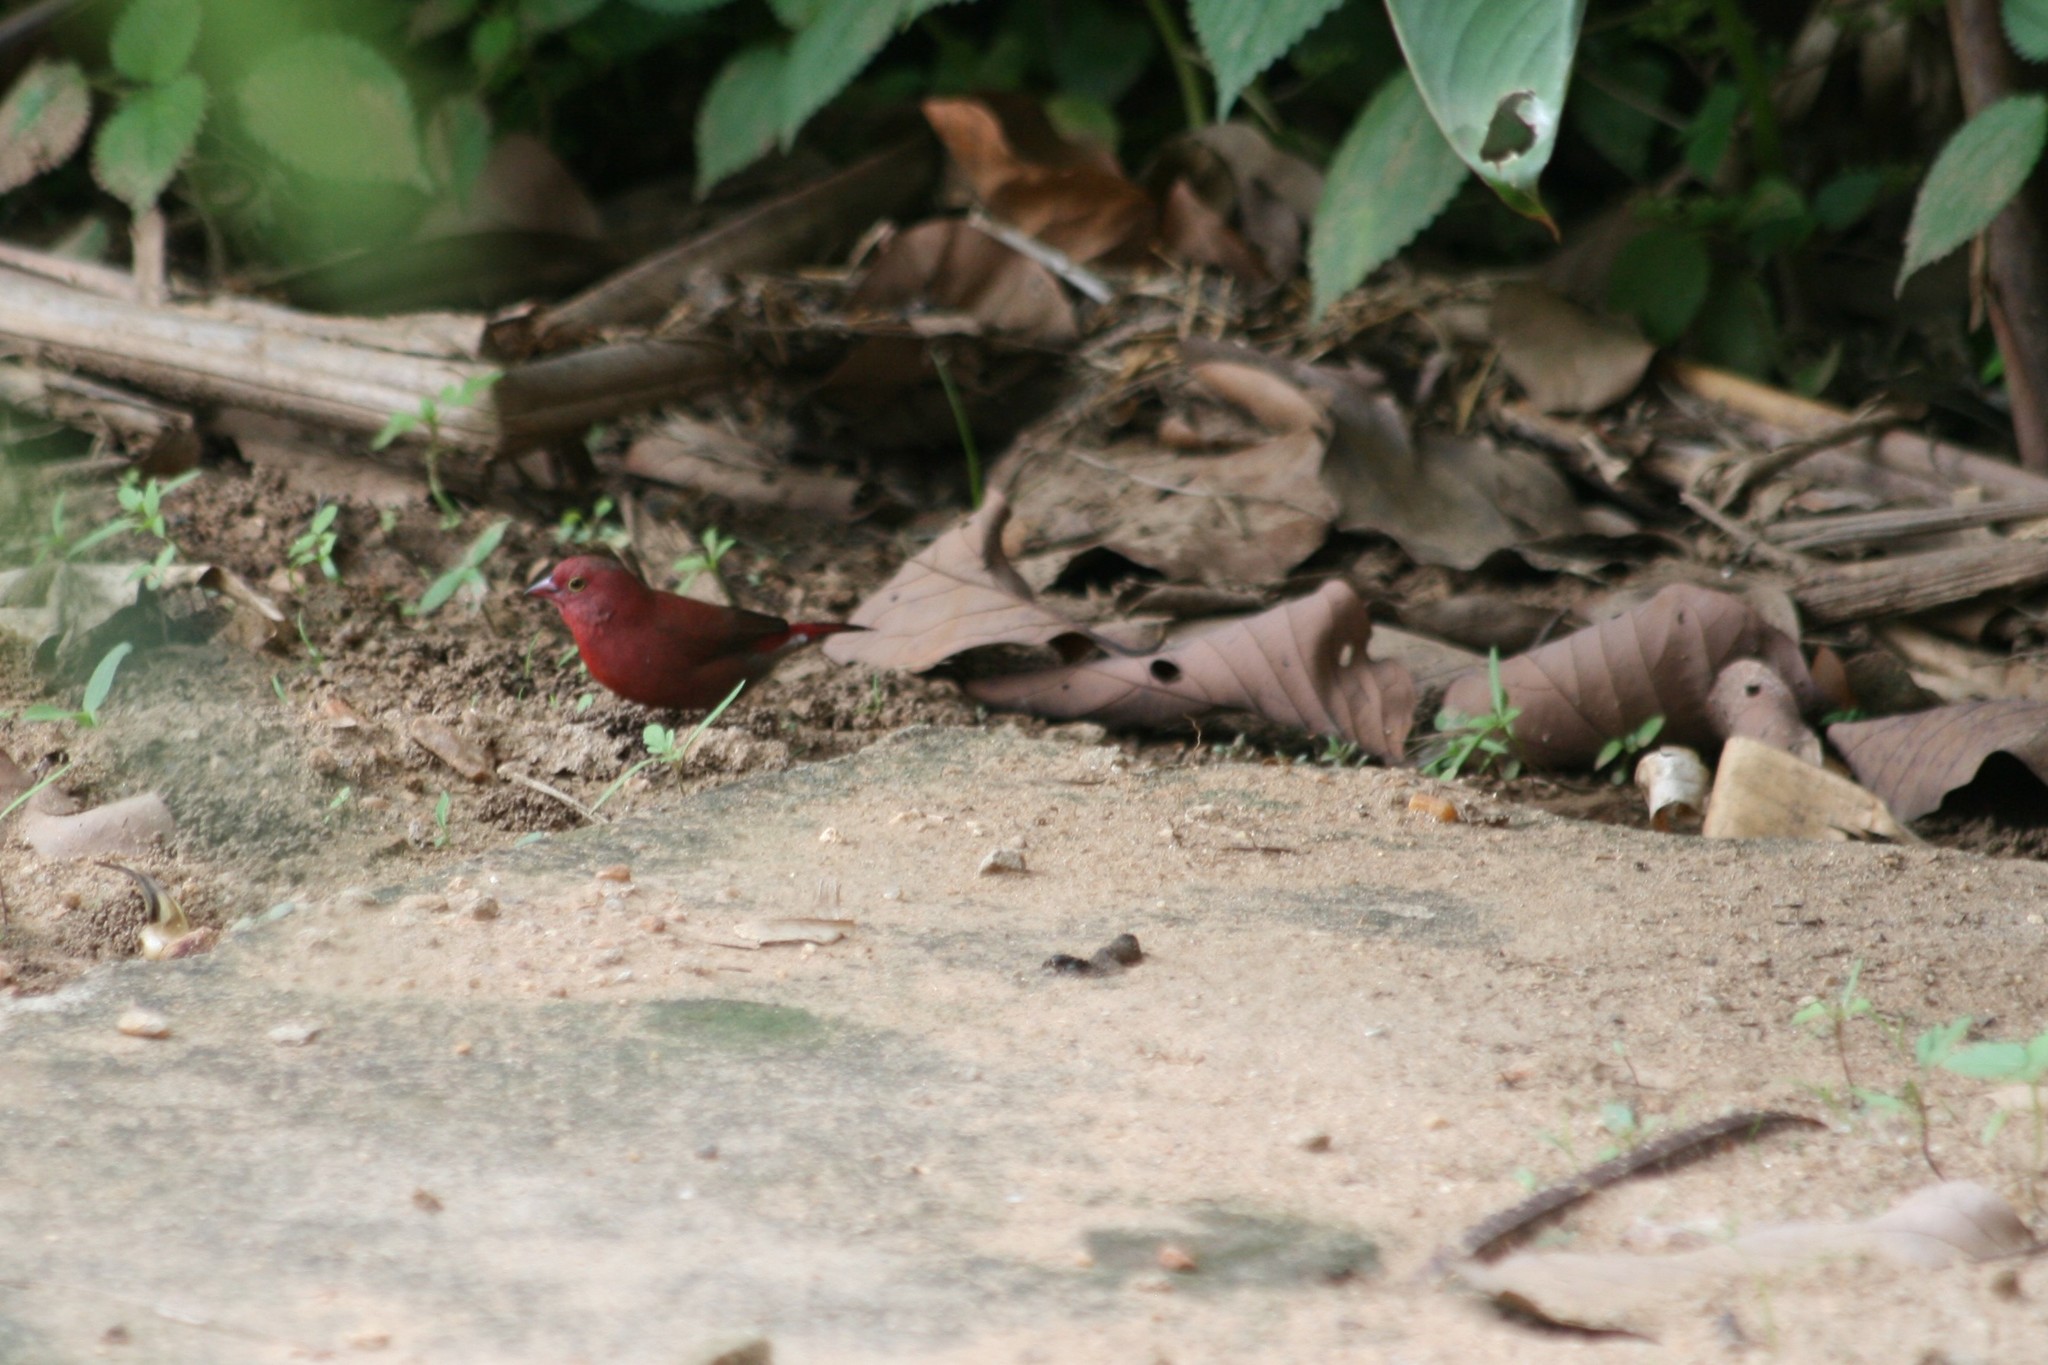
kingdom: Animalia
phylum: Chordata
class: Aves
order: Passeriformes
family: Estrildidae
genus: Lagonosticta
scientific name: Lagonosticta senegala
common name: Red-billed firefinch
